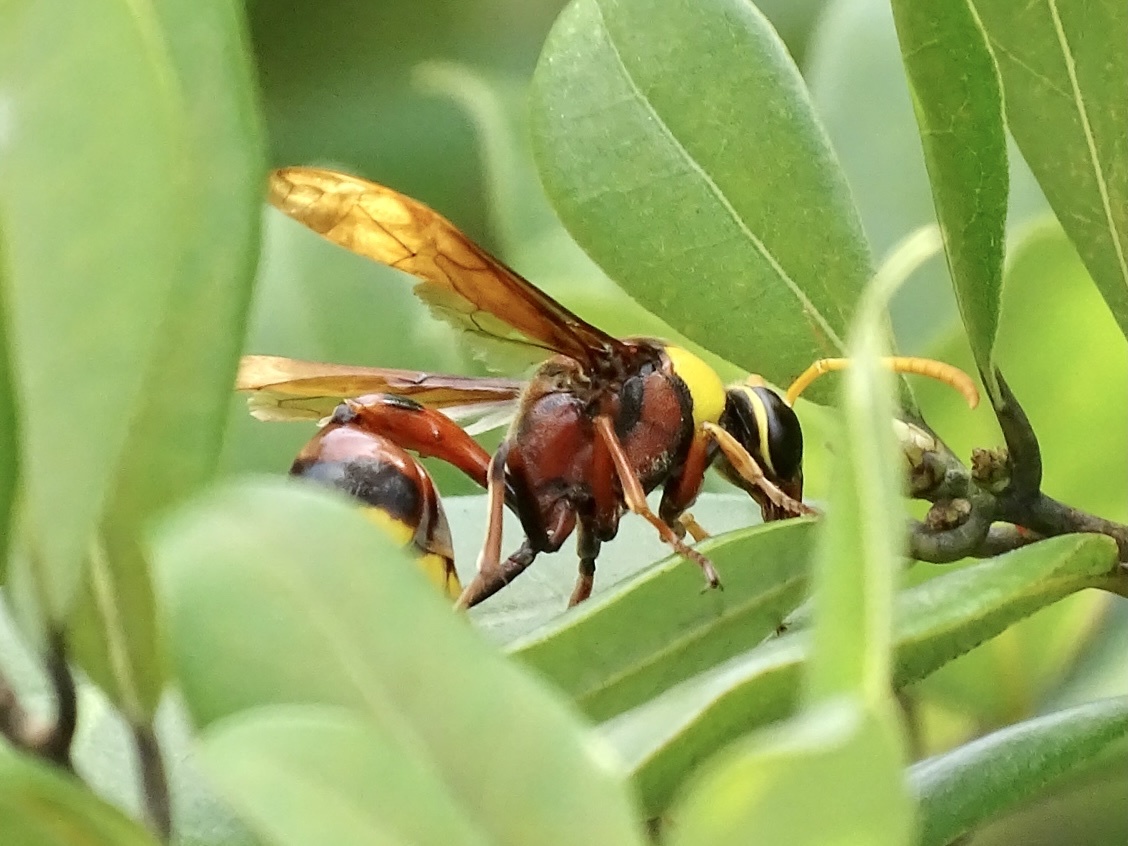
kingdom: Animalia
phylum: Arthropoda
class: Insecta
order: Hymenoptera
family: Eumenidae
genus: Delta
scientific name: Delta pyriforme
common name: Wasp
